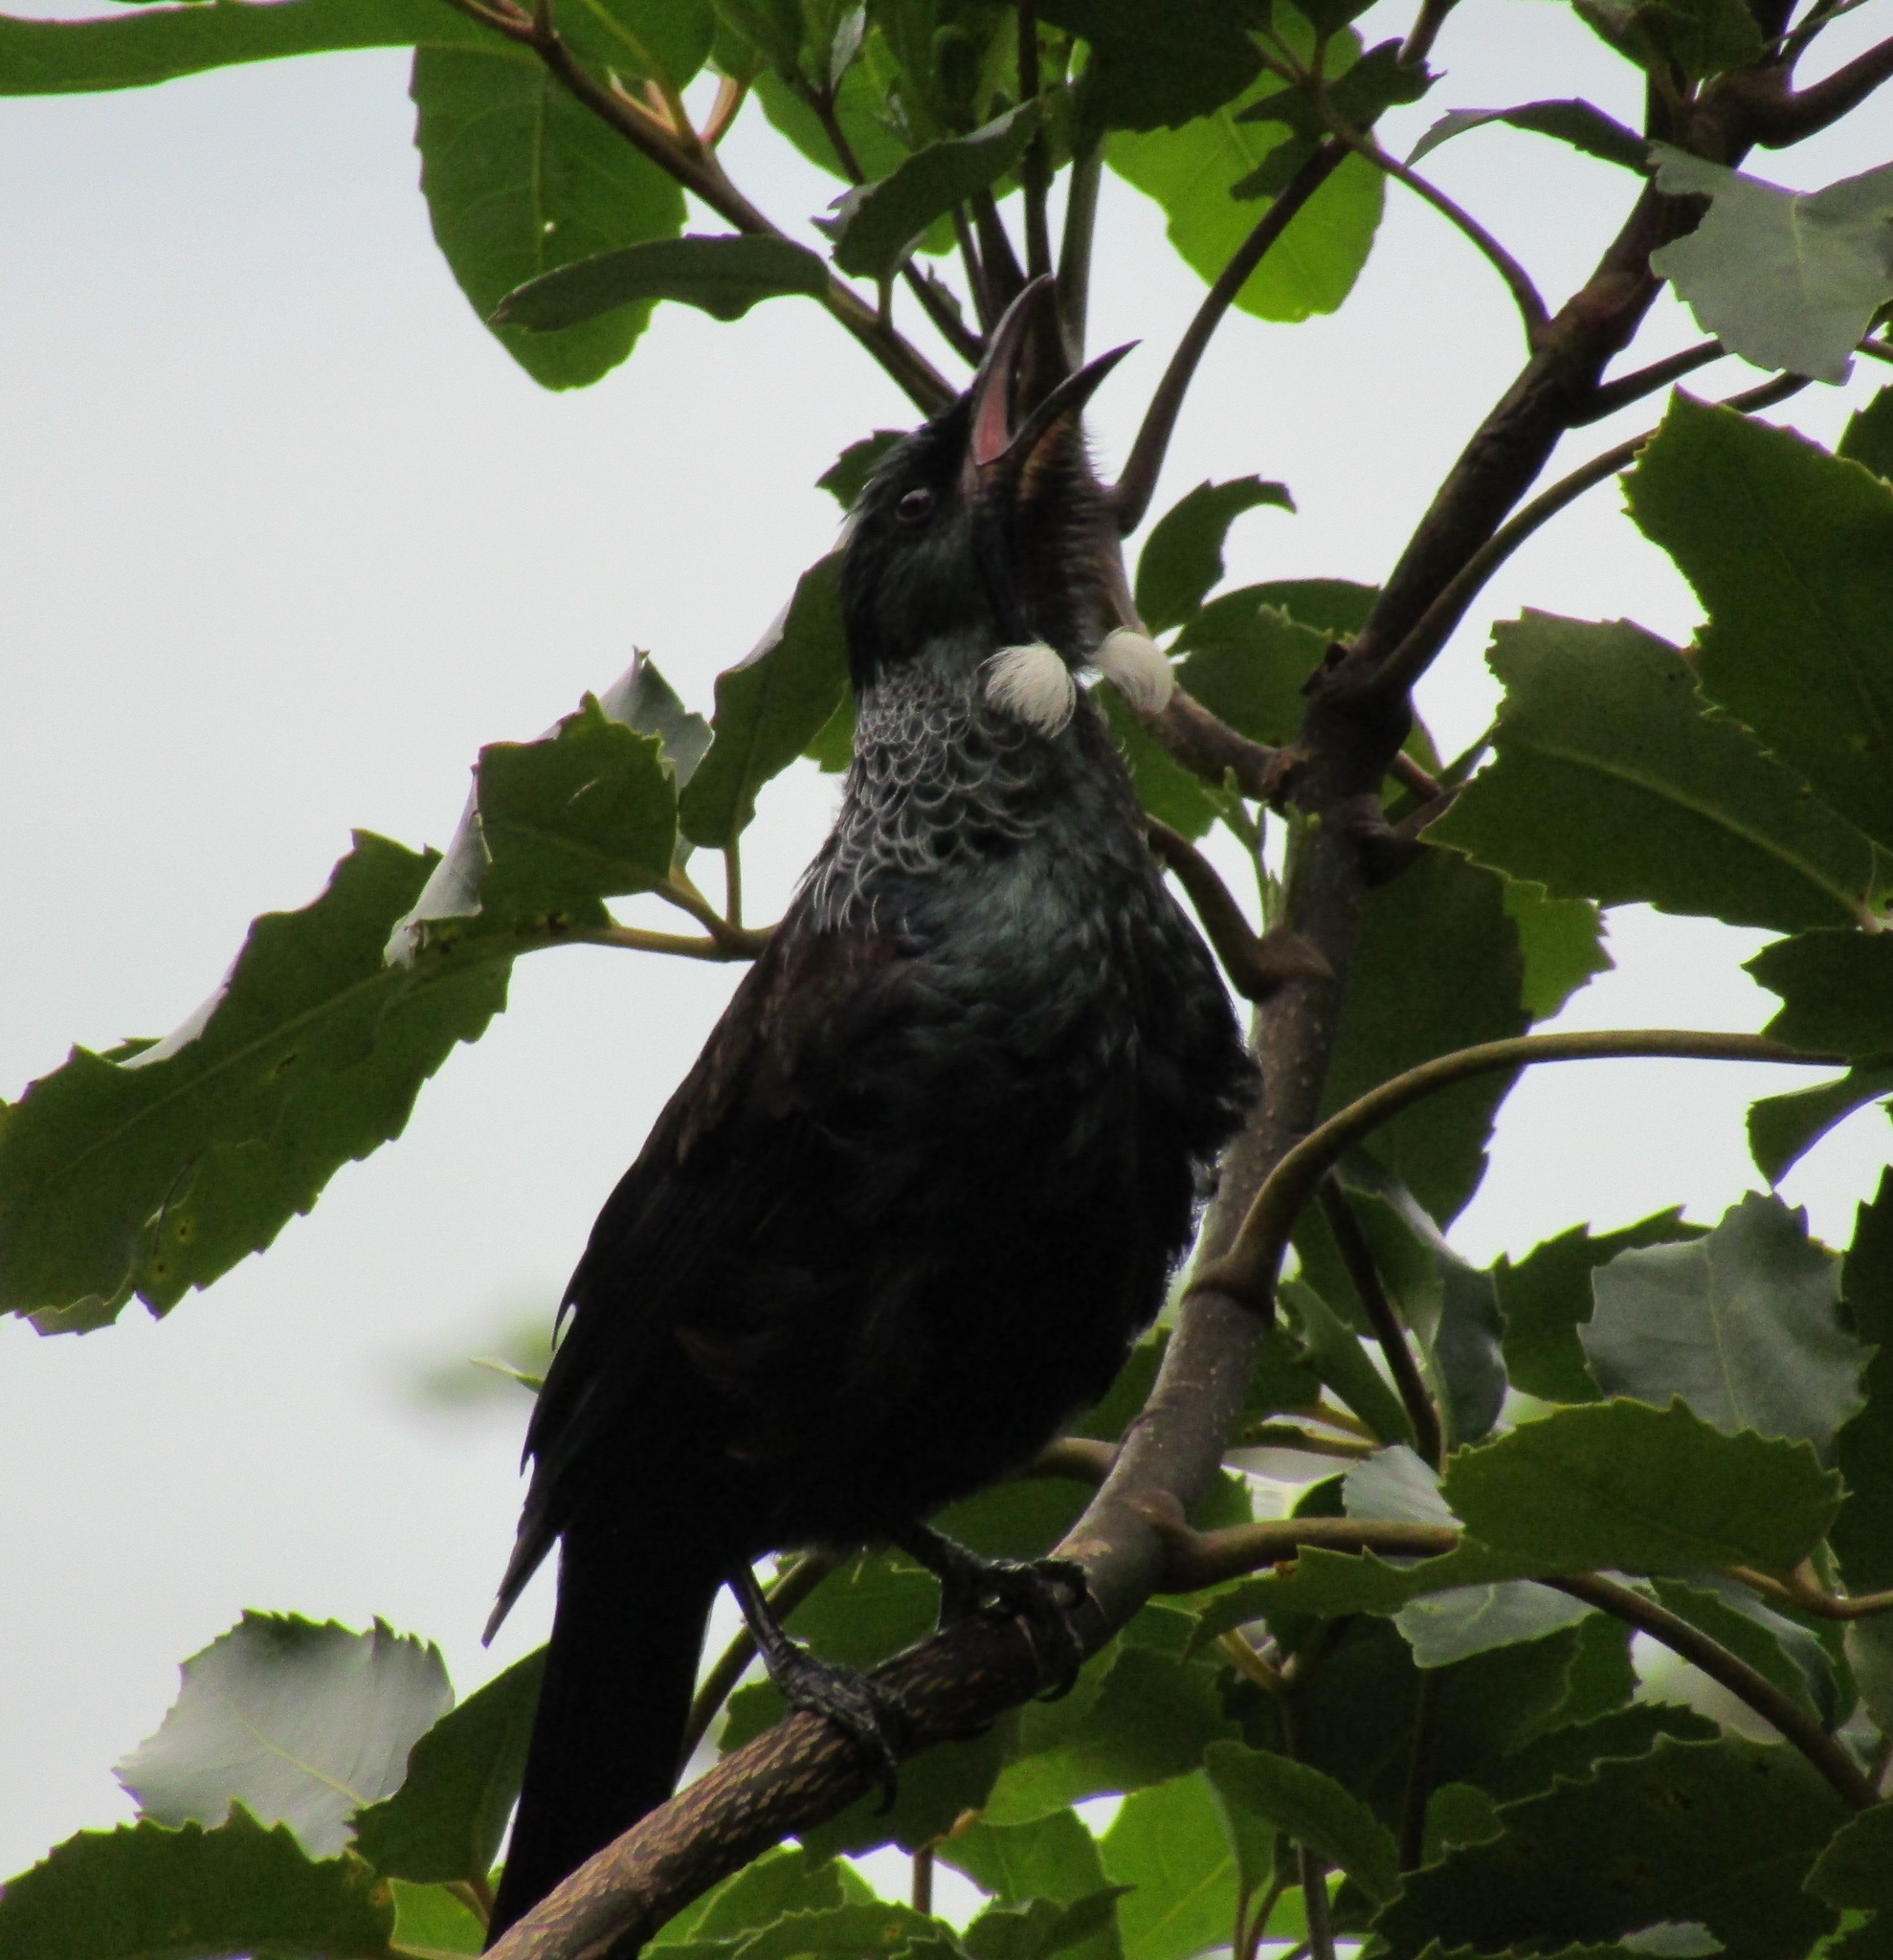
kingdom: Animalia
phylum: Chordata
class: Aves
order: Passeriformes
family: Meliphagidae
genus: Prosthemadera
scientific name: Prosthemadera novaeseelandiae
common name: Tui
